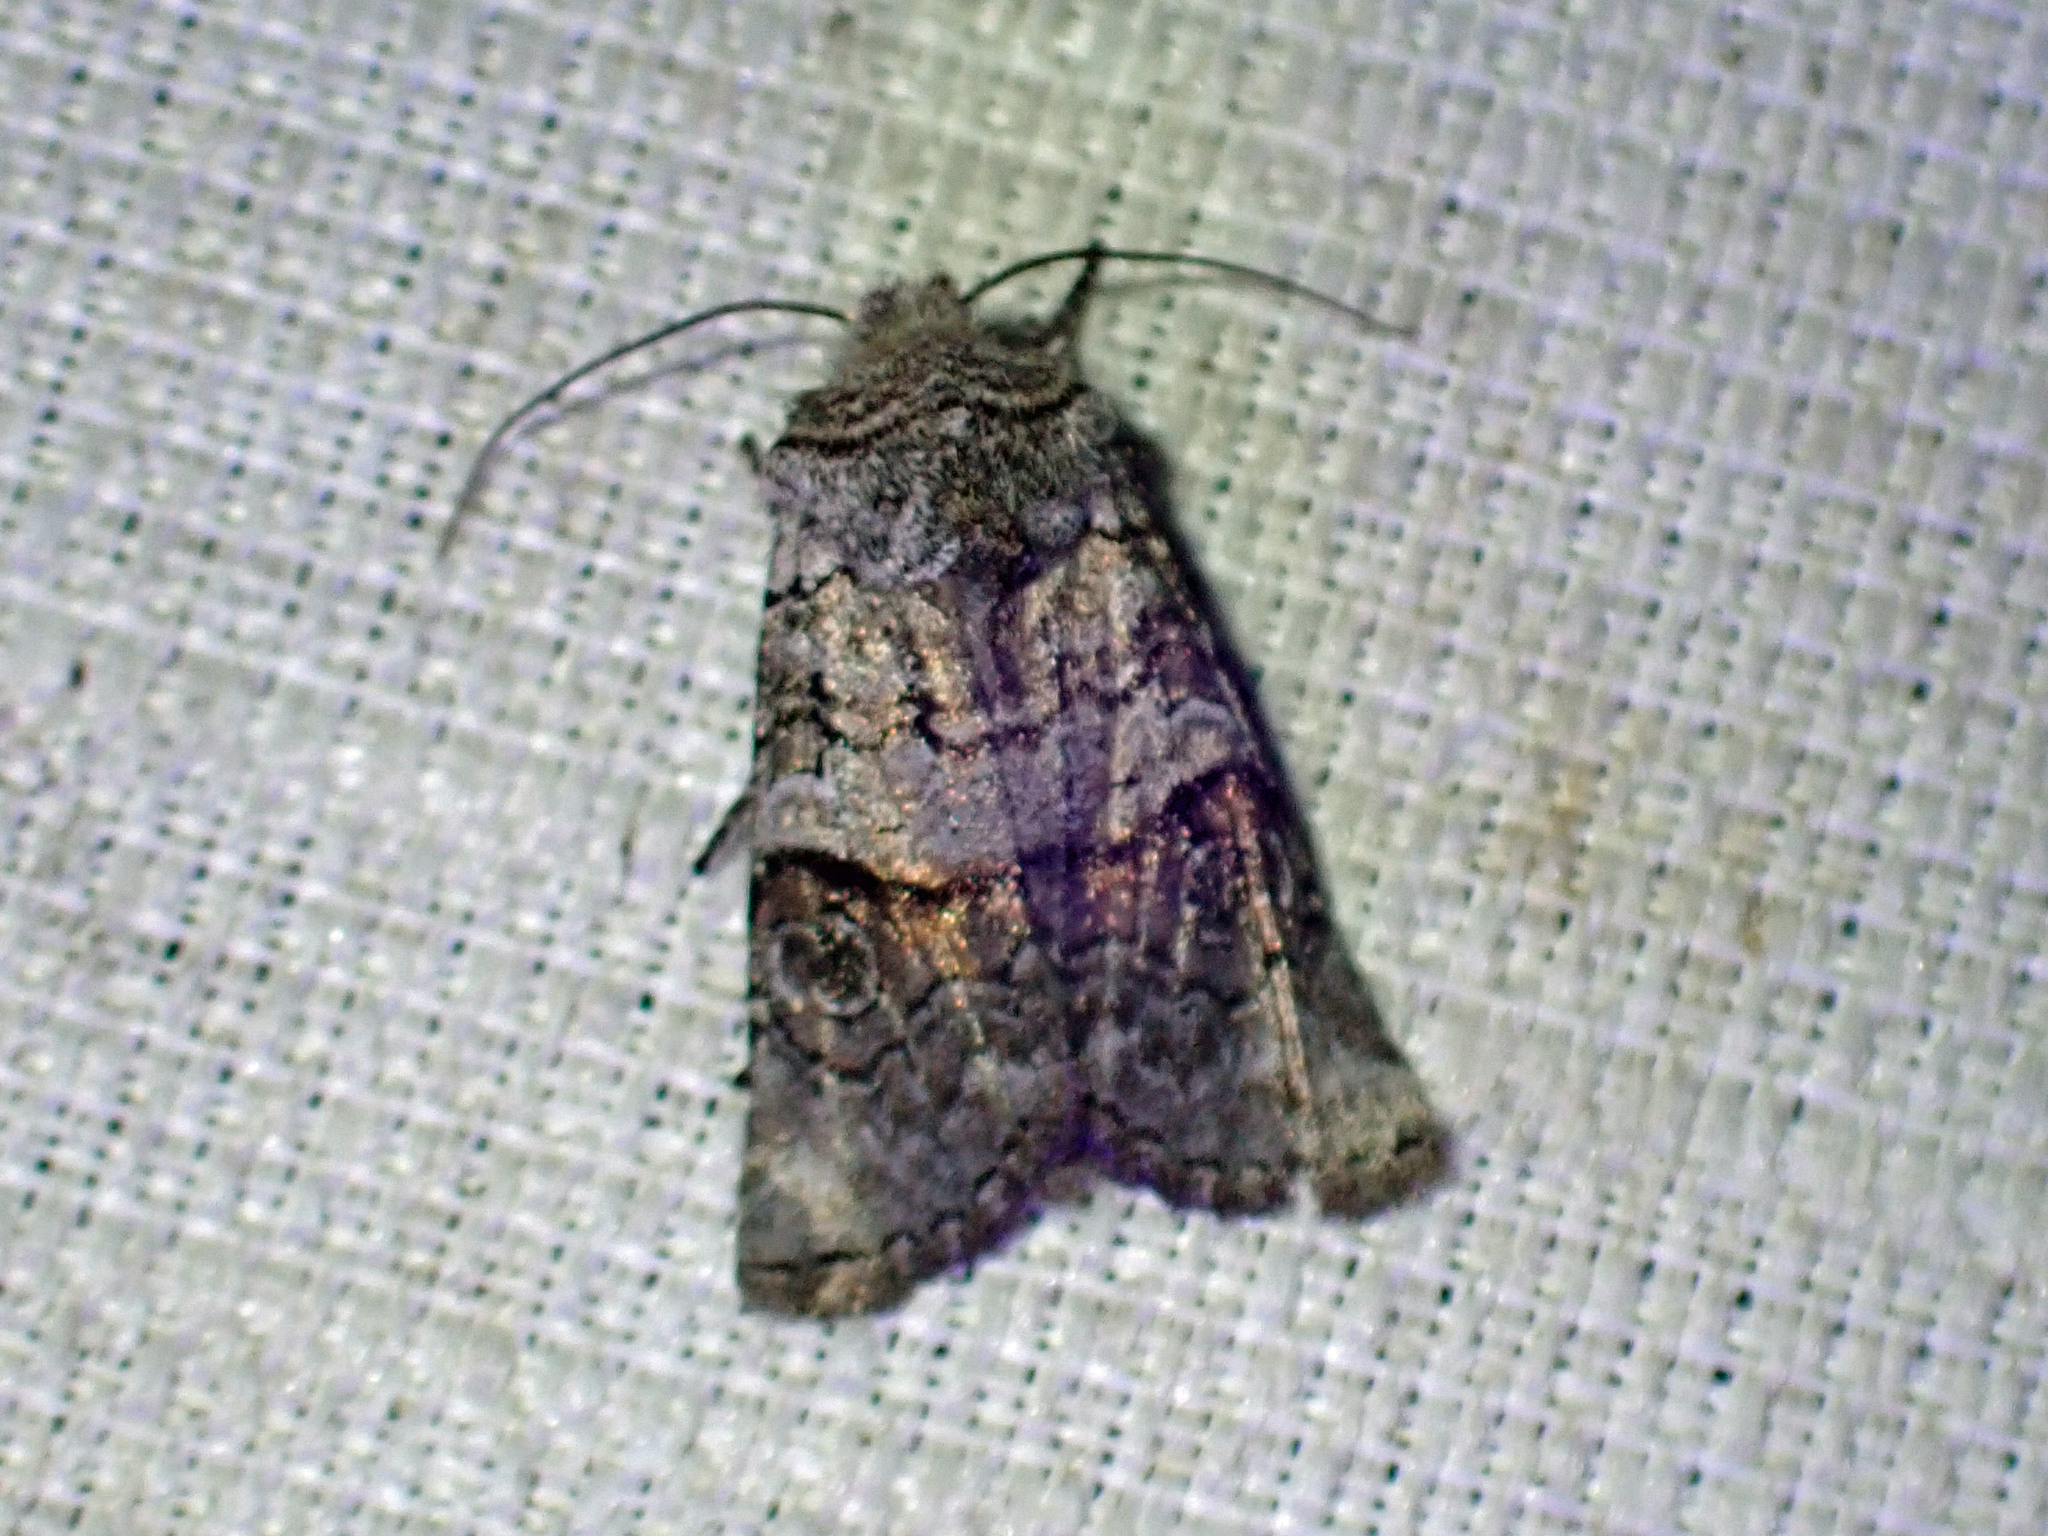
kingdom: Animalia
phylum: Arthropoda
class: Insecta
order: Lepidoptera
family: Noctuidae
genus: Litholomia
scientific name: Litholomia napaea
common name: False pinion moth
